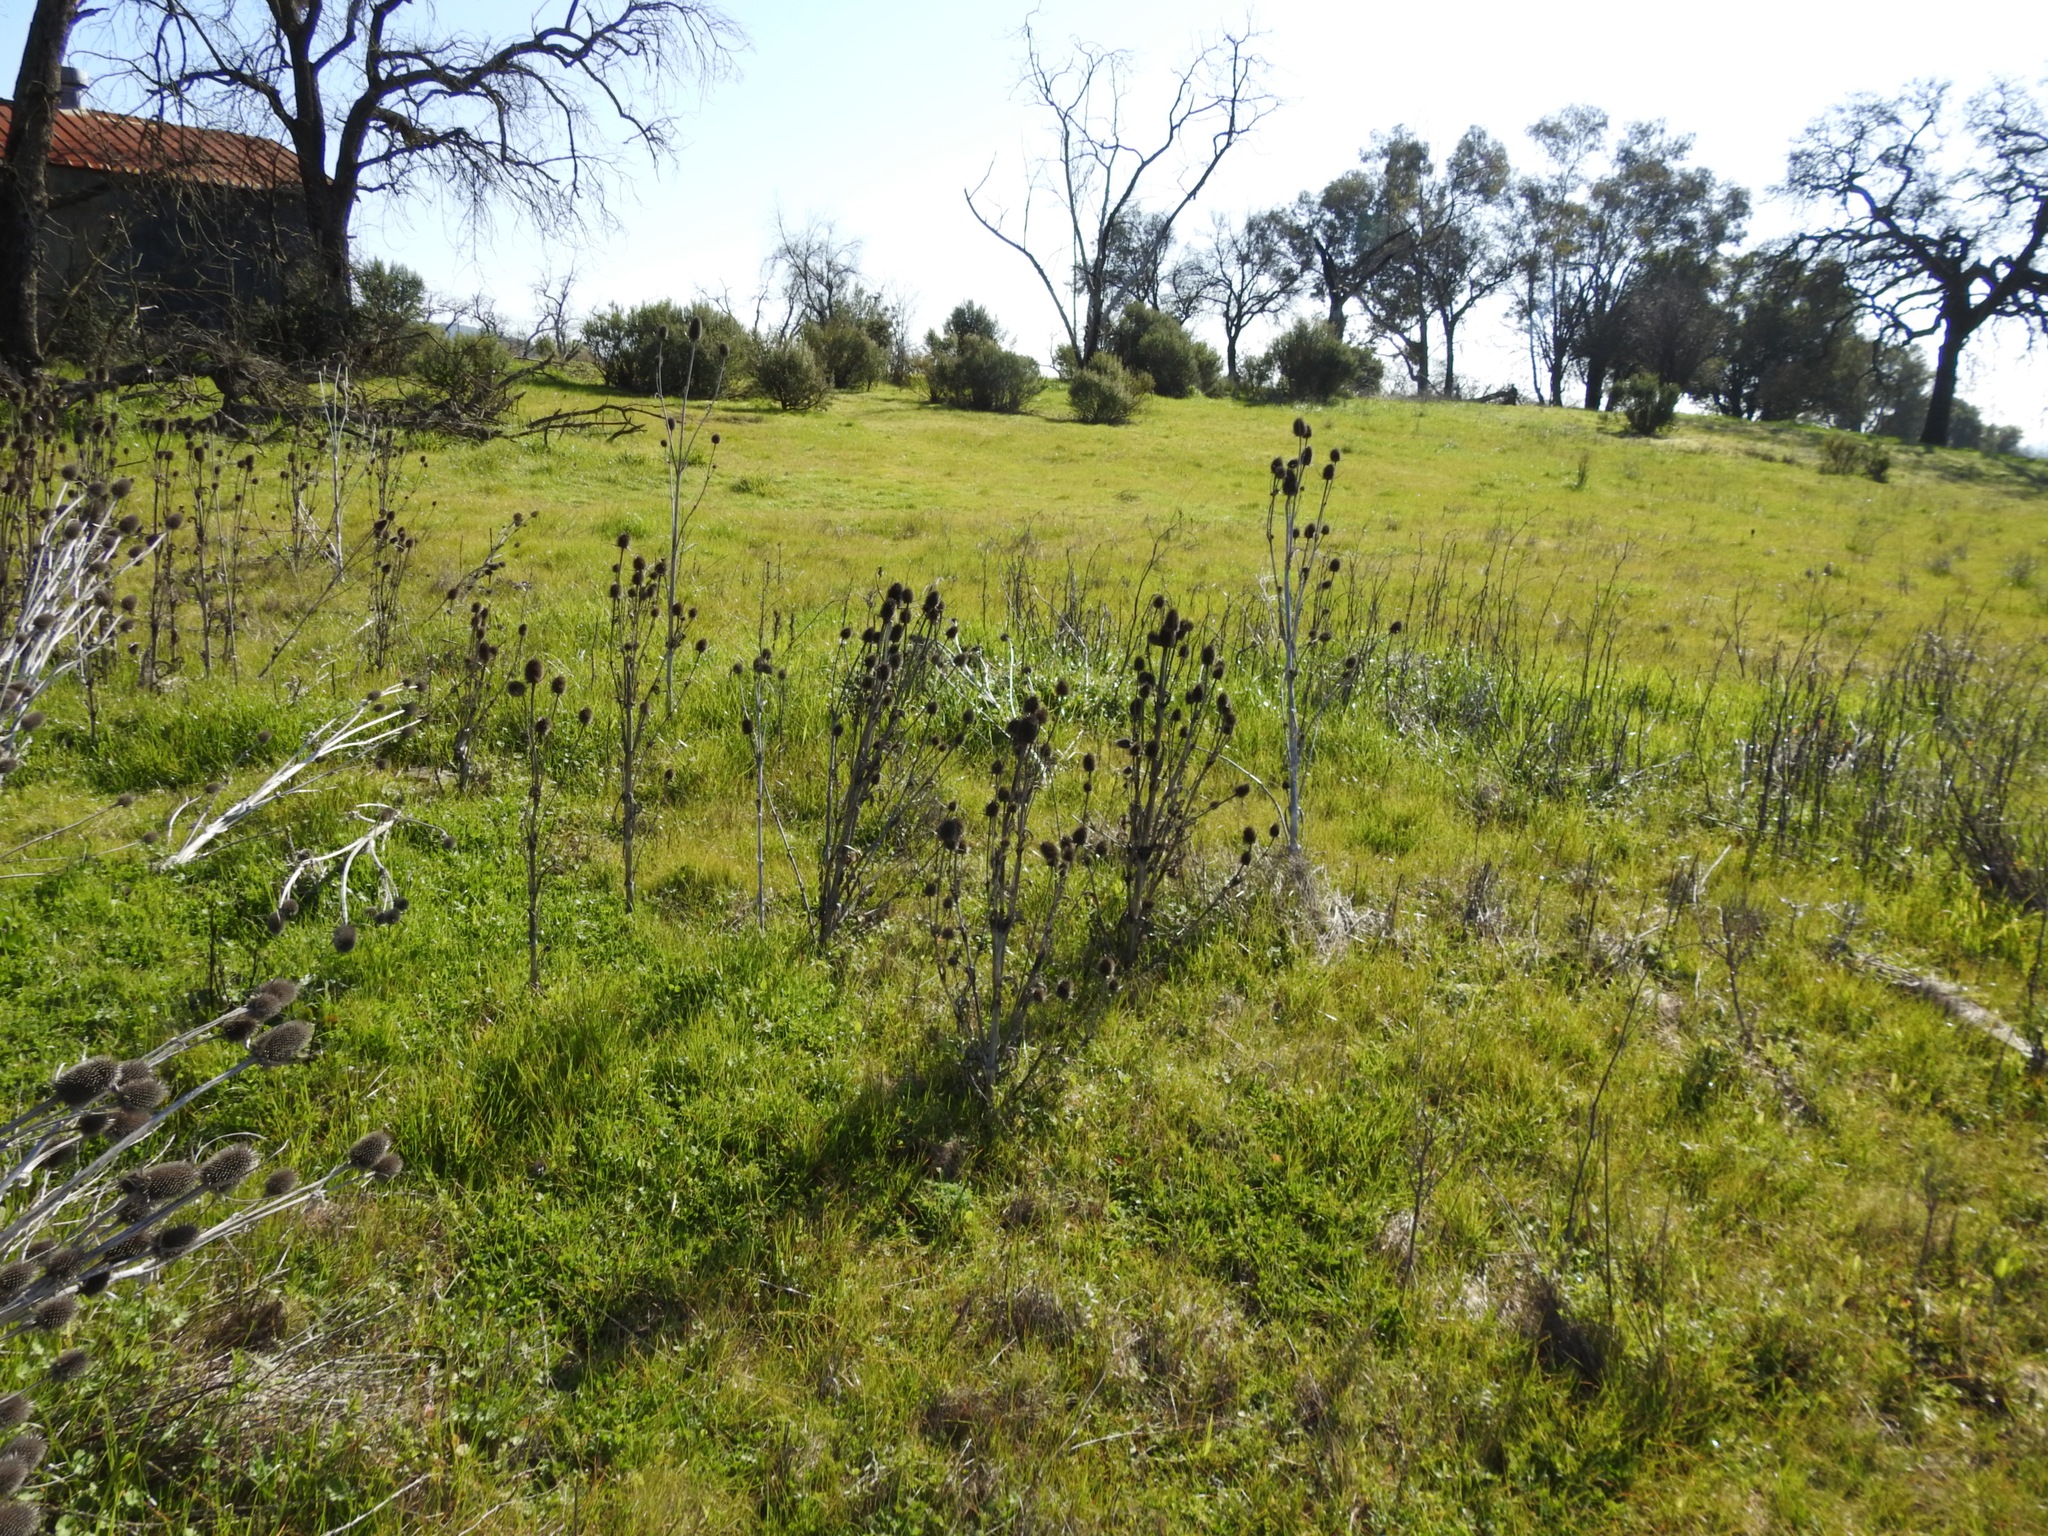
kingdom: Plantae
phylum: Tracheophyta
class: Magnoliopsida
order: Dipsacales
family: Caprifoliaceae
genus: Dipsacus
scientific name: Dipsacus sativus
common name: Fuller's teasel
